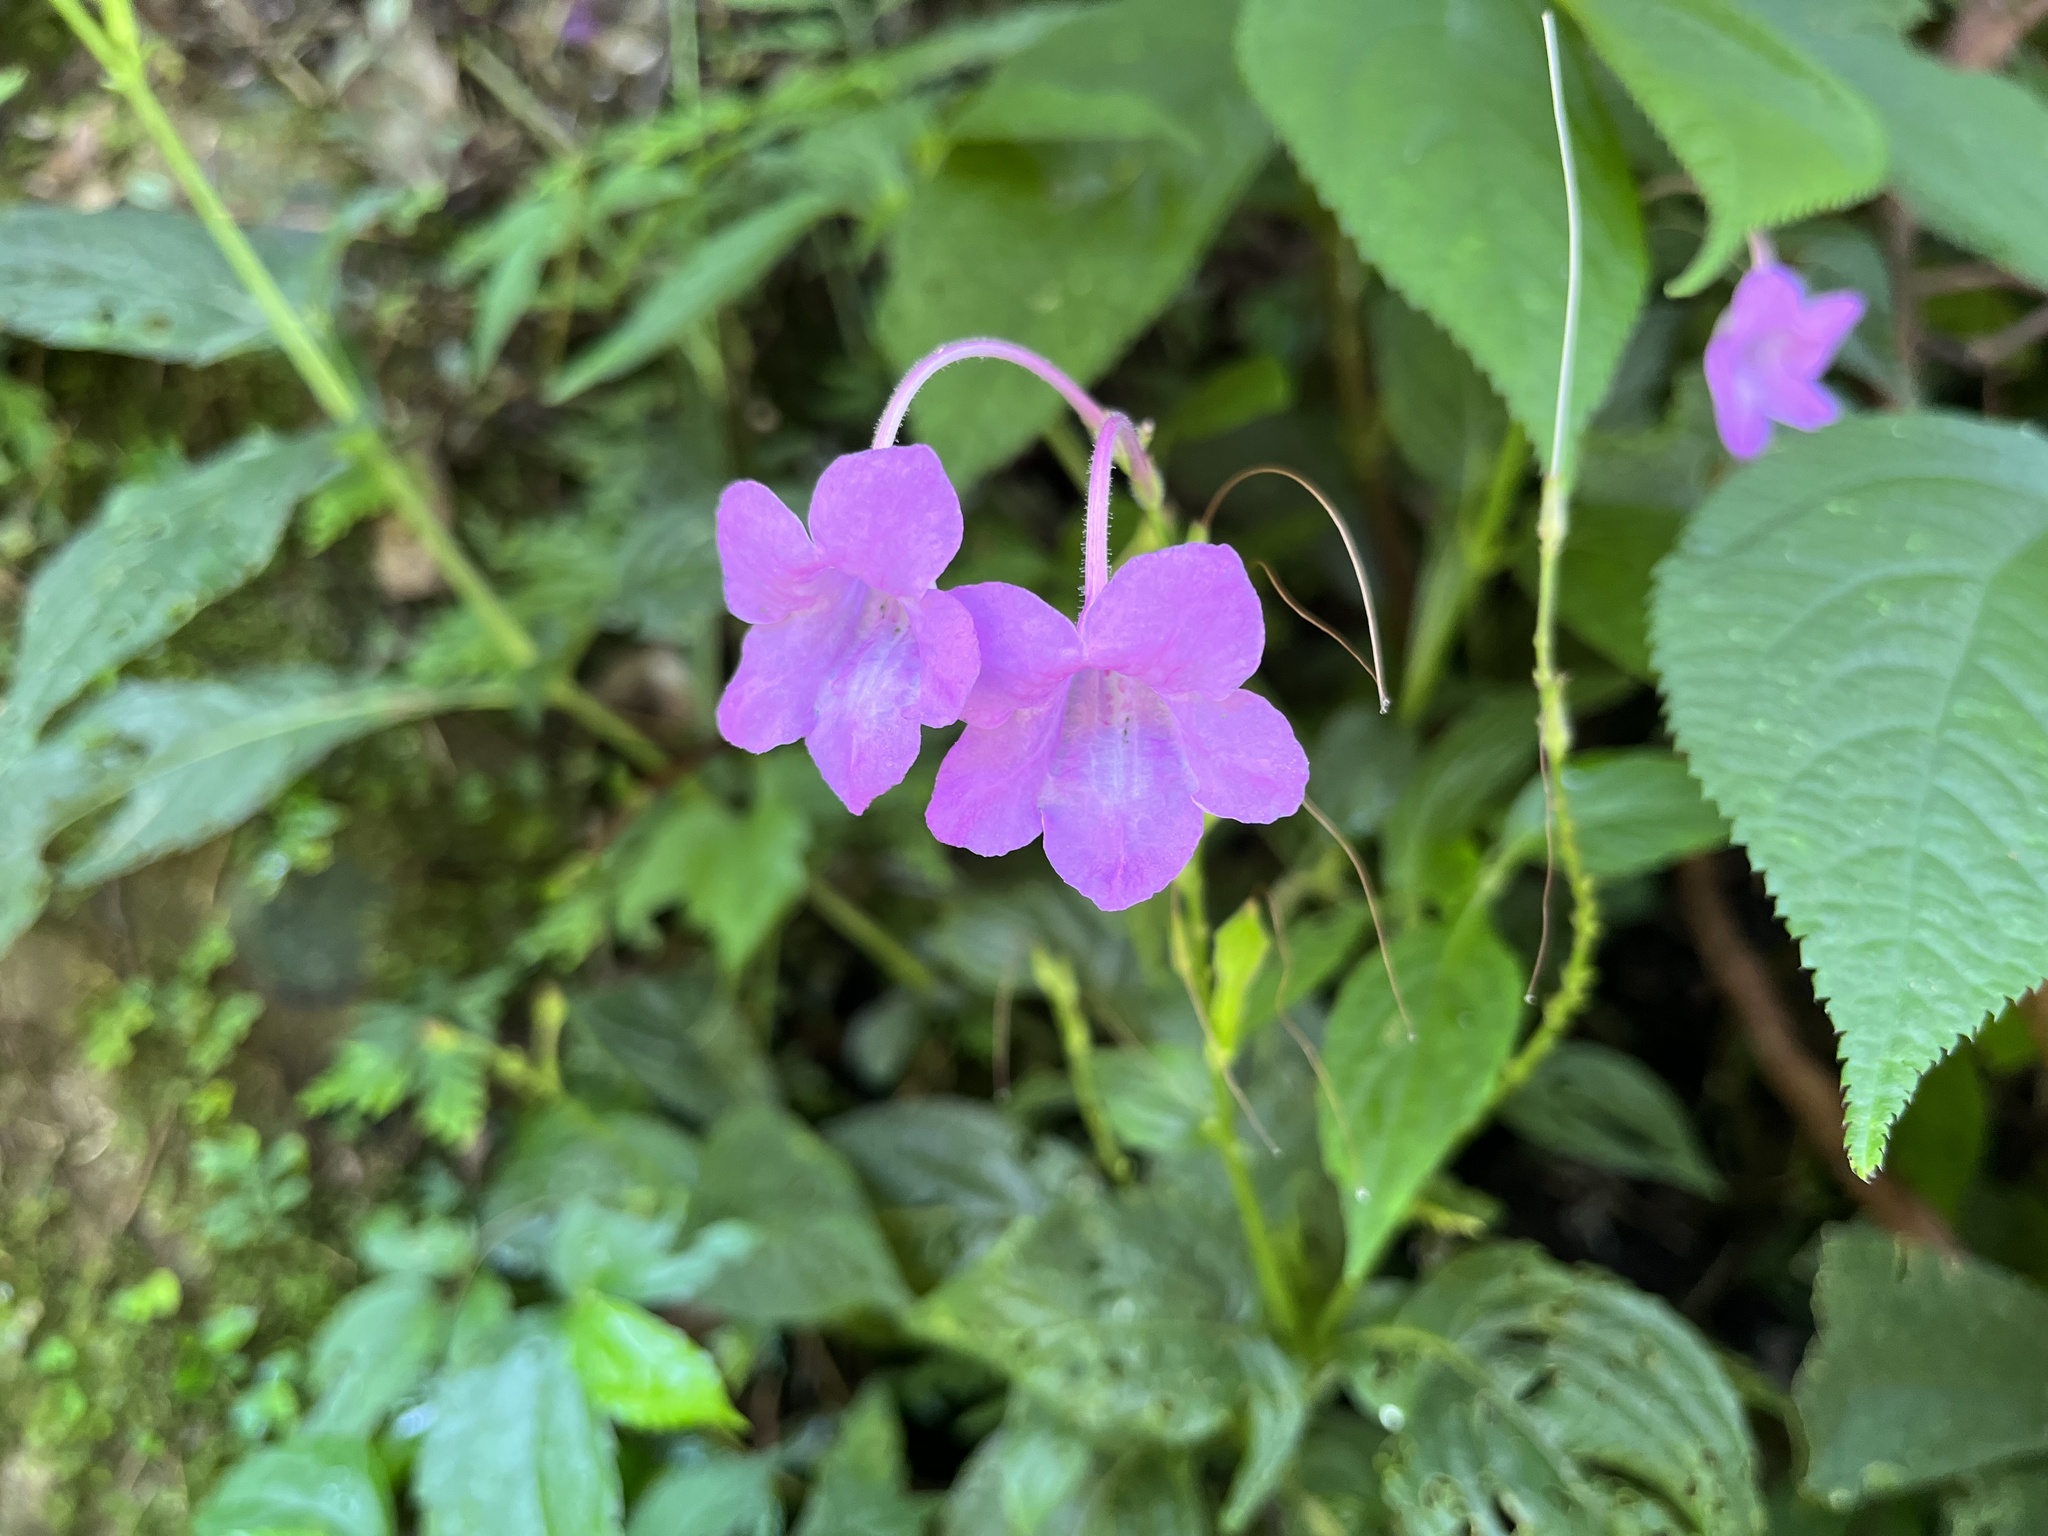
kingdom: Plantae
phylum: Tracheophyta
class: Magnoliopsida
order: Lamiales
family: Acanthaceae
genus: Mackaya
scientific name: Mackaya neesiana
